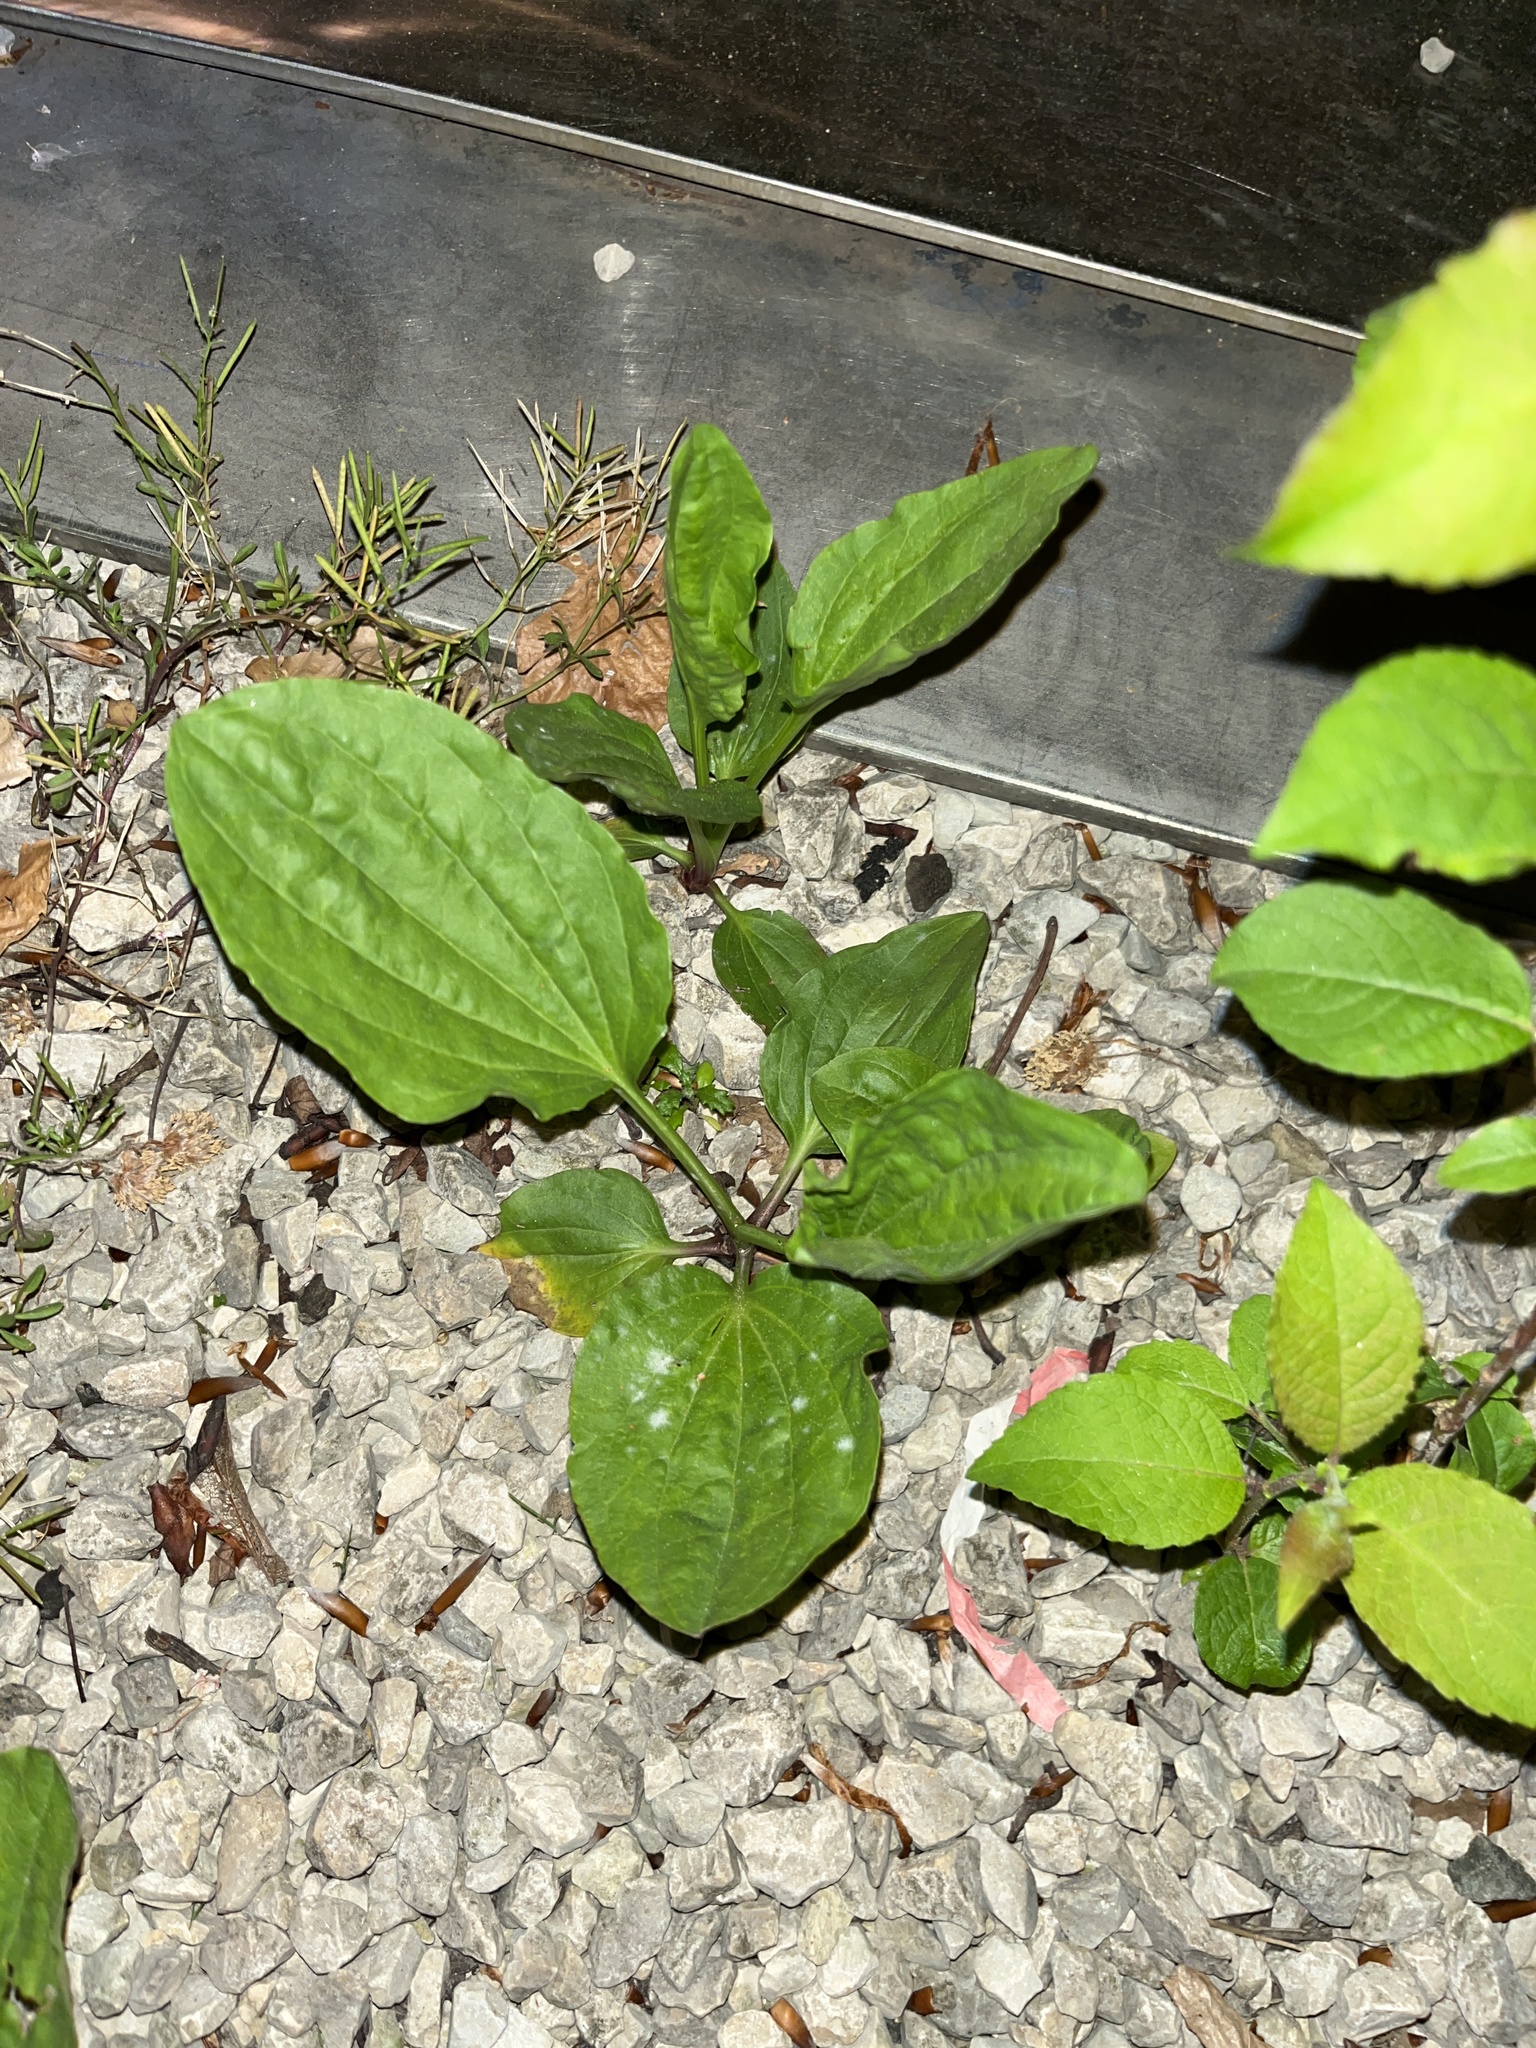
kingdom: Plantae
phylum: Tracheophyta
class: Magnoliopsida
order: Lamiales
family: Plantaginaceae
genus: Plantago
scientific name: Plantago major
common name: Common plantain
